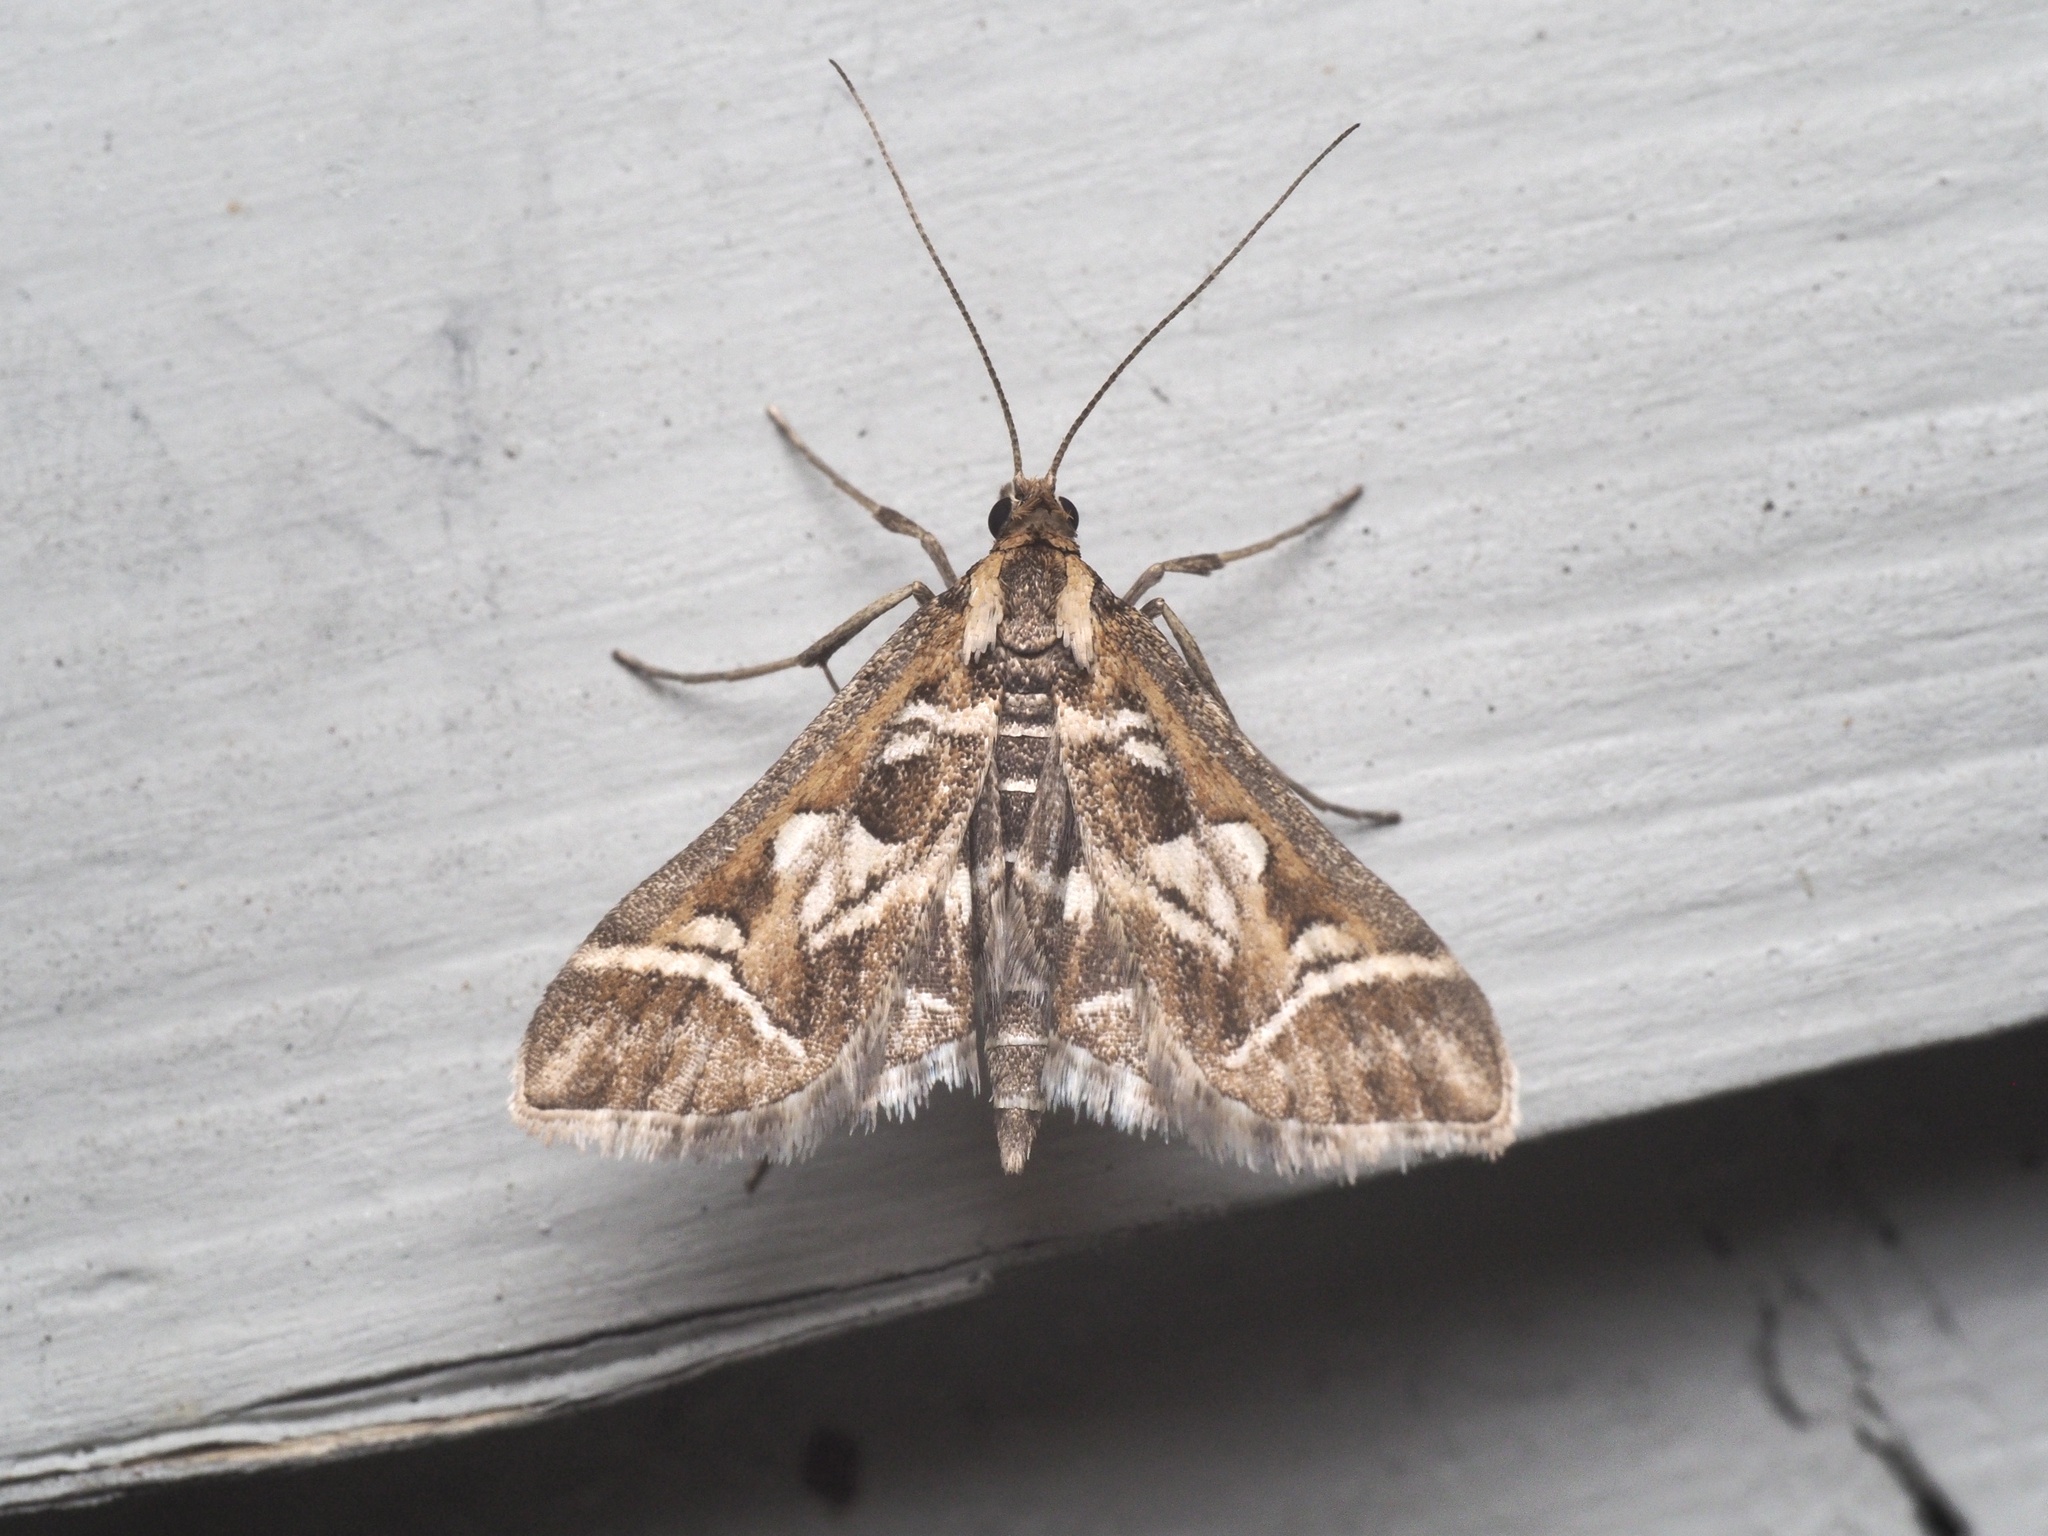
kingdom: Animalia
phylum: Arthropoda
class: Insecta
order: Lepidoptera
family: Crambidae
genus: Diasemia
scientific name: Diasemia reticularis
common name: Lettered china-mark
